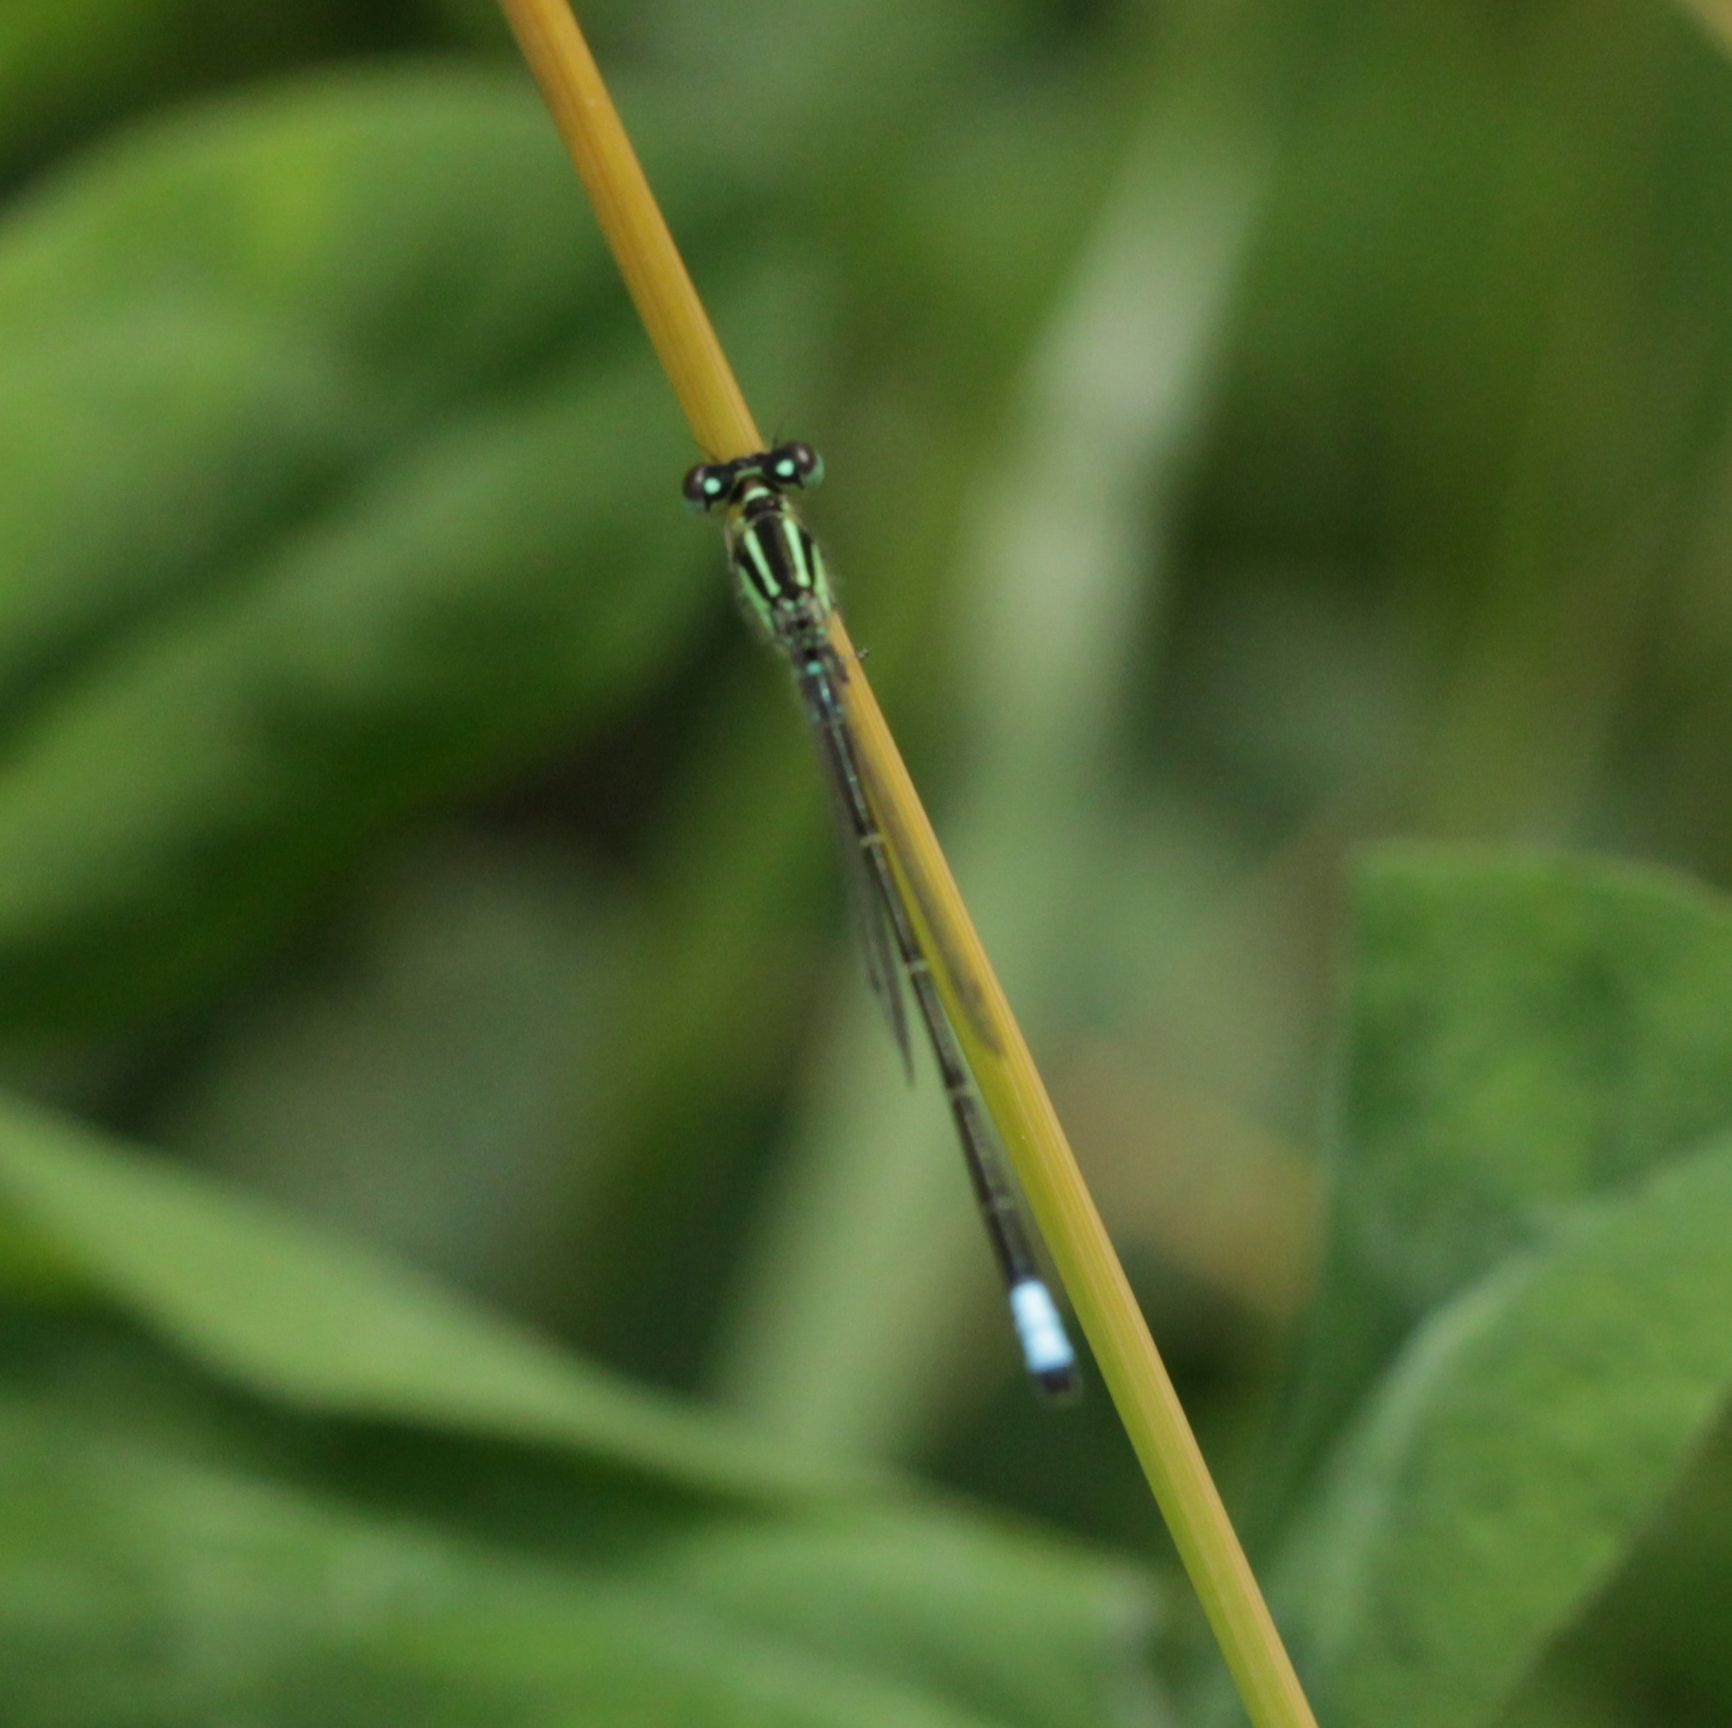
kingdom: Animalia
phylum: Arthropoda
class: Insecta
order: Odonata
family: Coenagrionidae
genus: Ischnura
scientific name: Ischnura verticalis
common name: Eastern forktail
